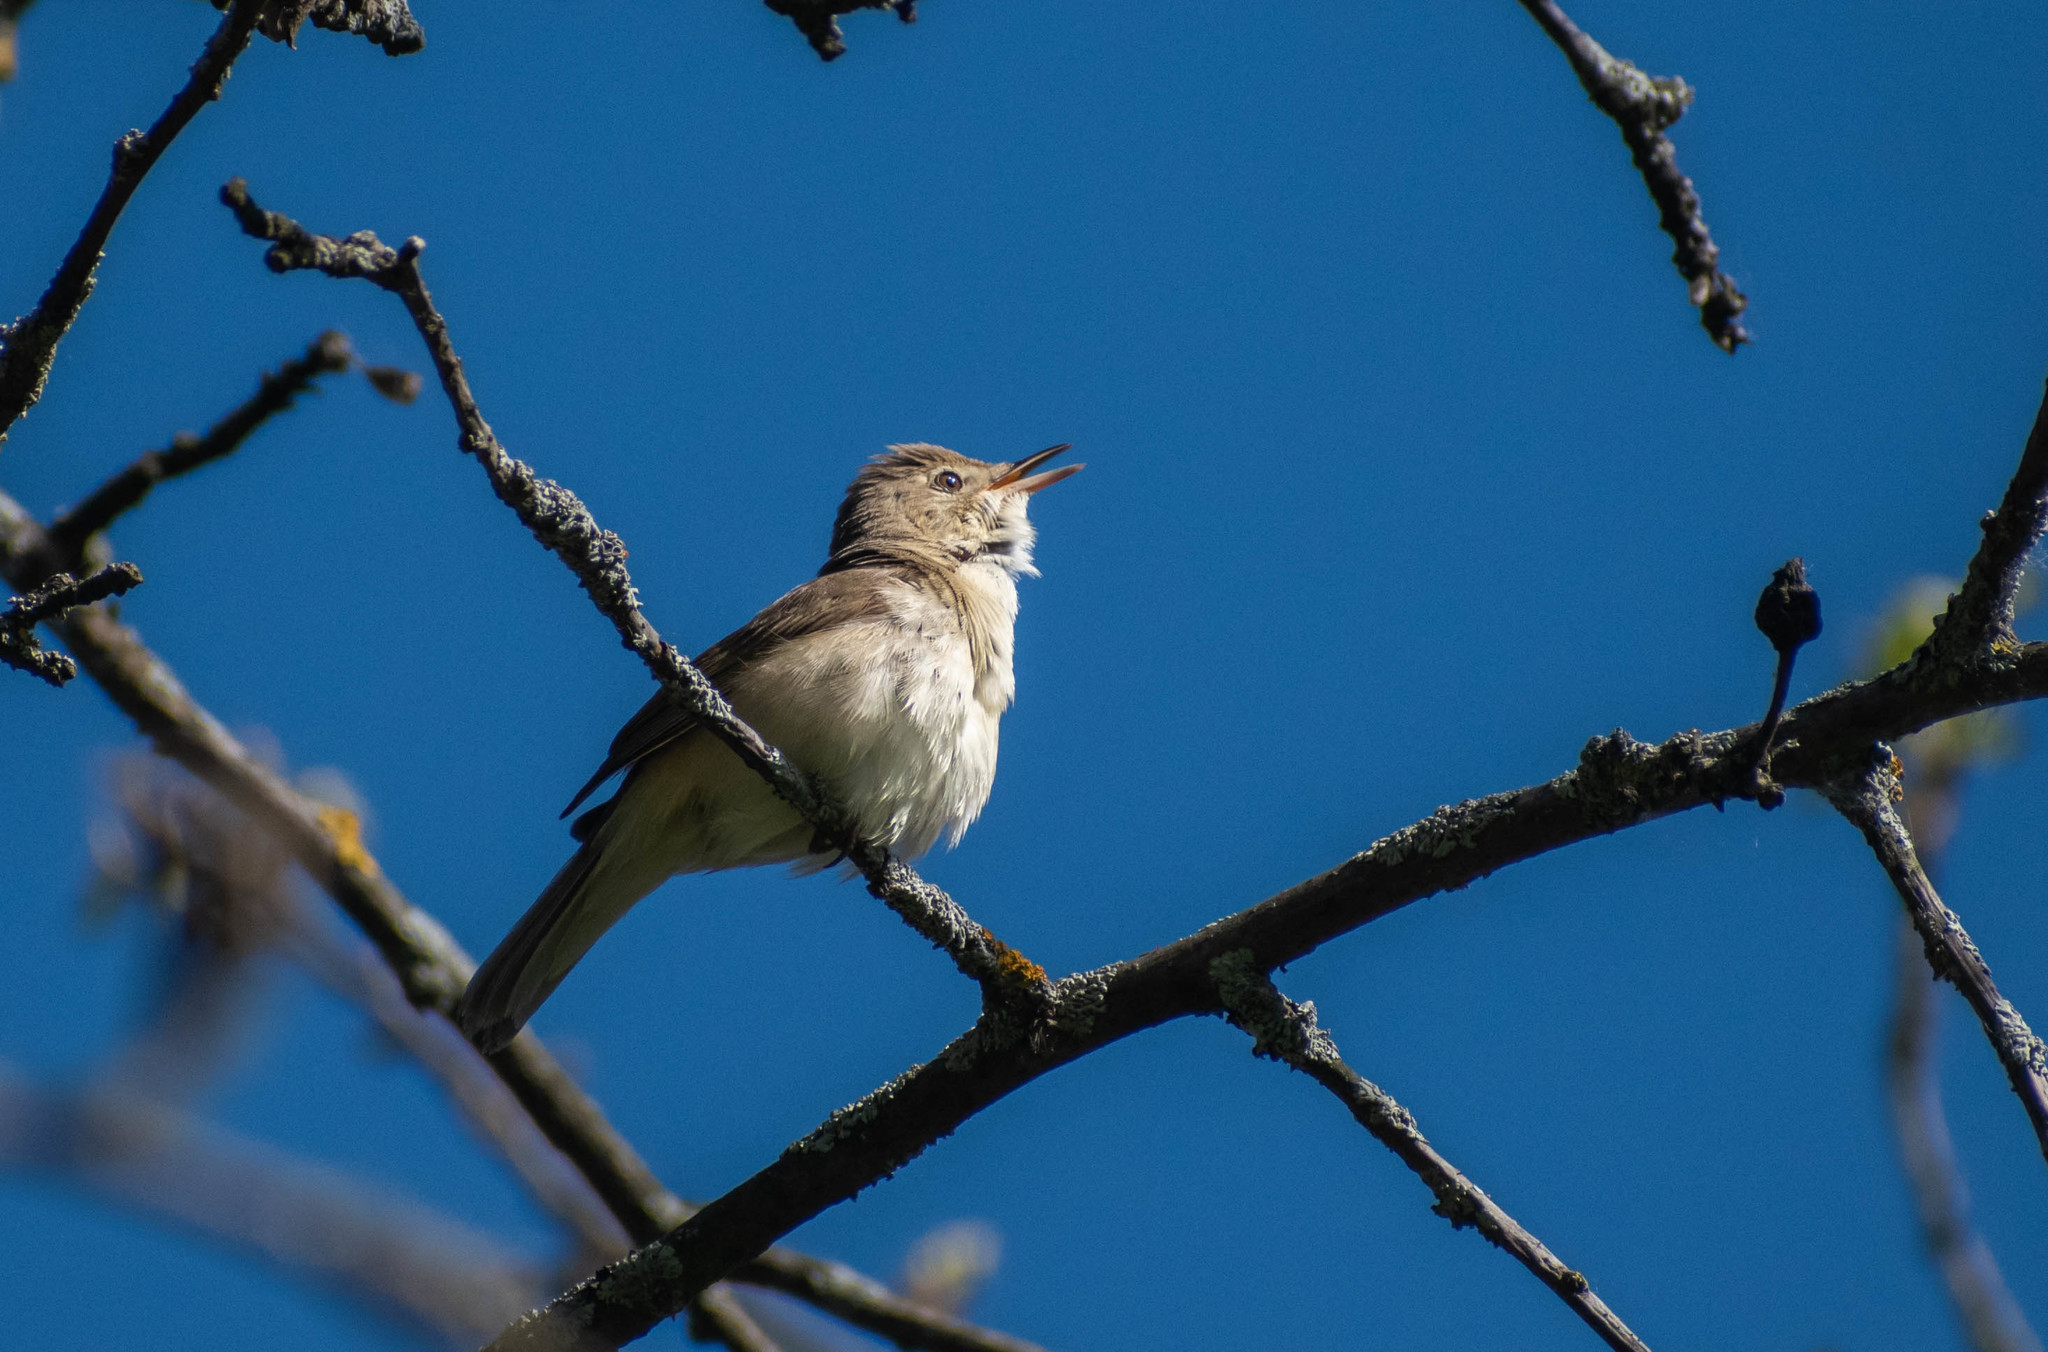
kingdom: Animalia
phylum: Chordata
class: Aves
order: Passeriformes
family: Acrocephalidae
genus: Acrocephalus
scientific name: Acrocephalus dumetorum
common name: Blyth's reed warbler
